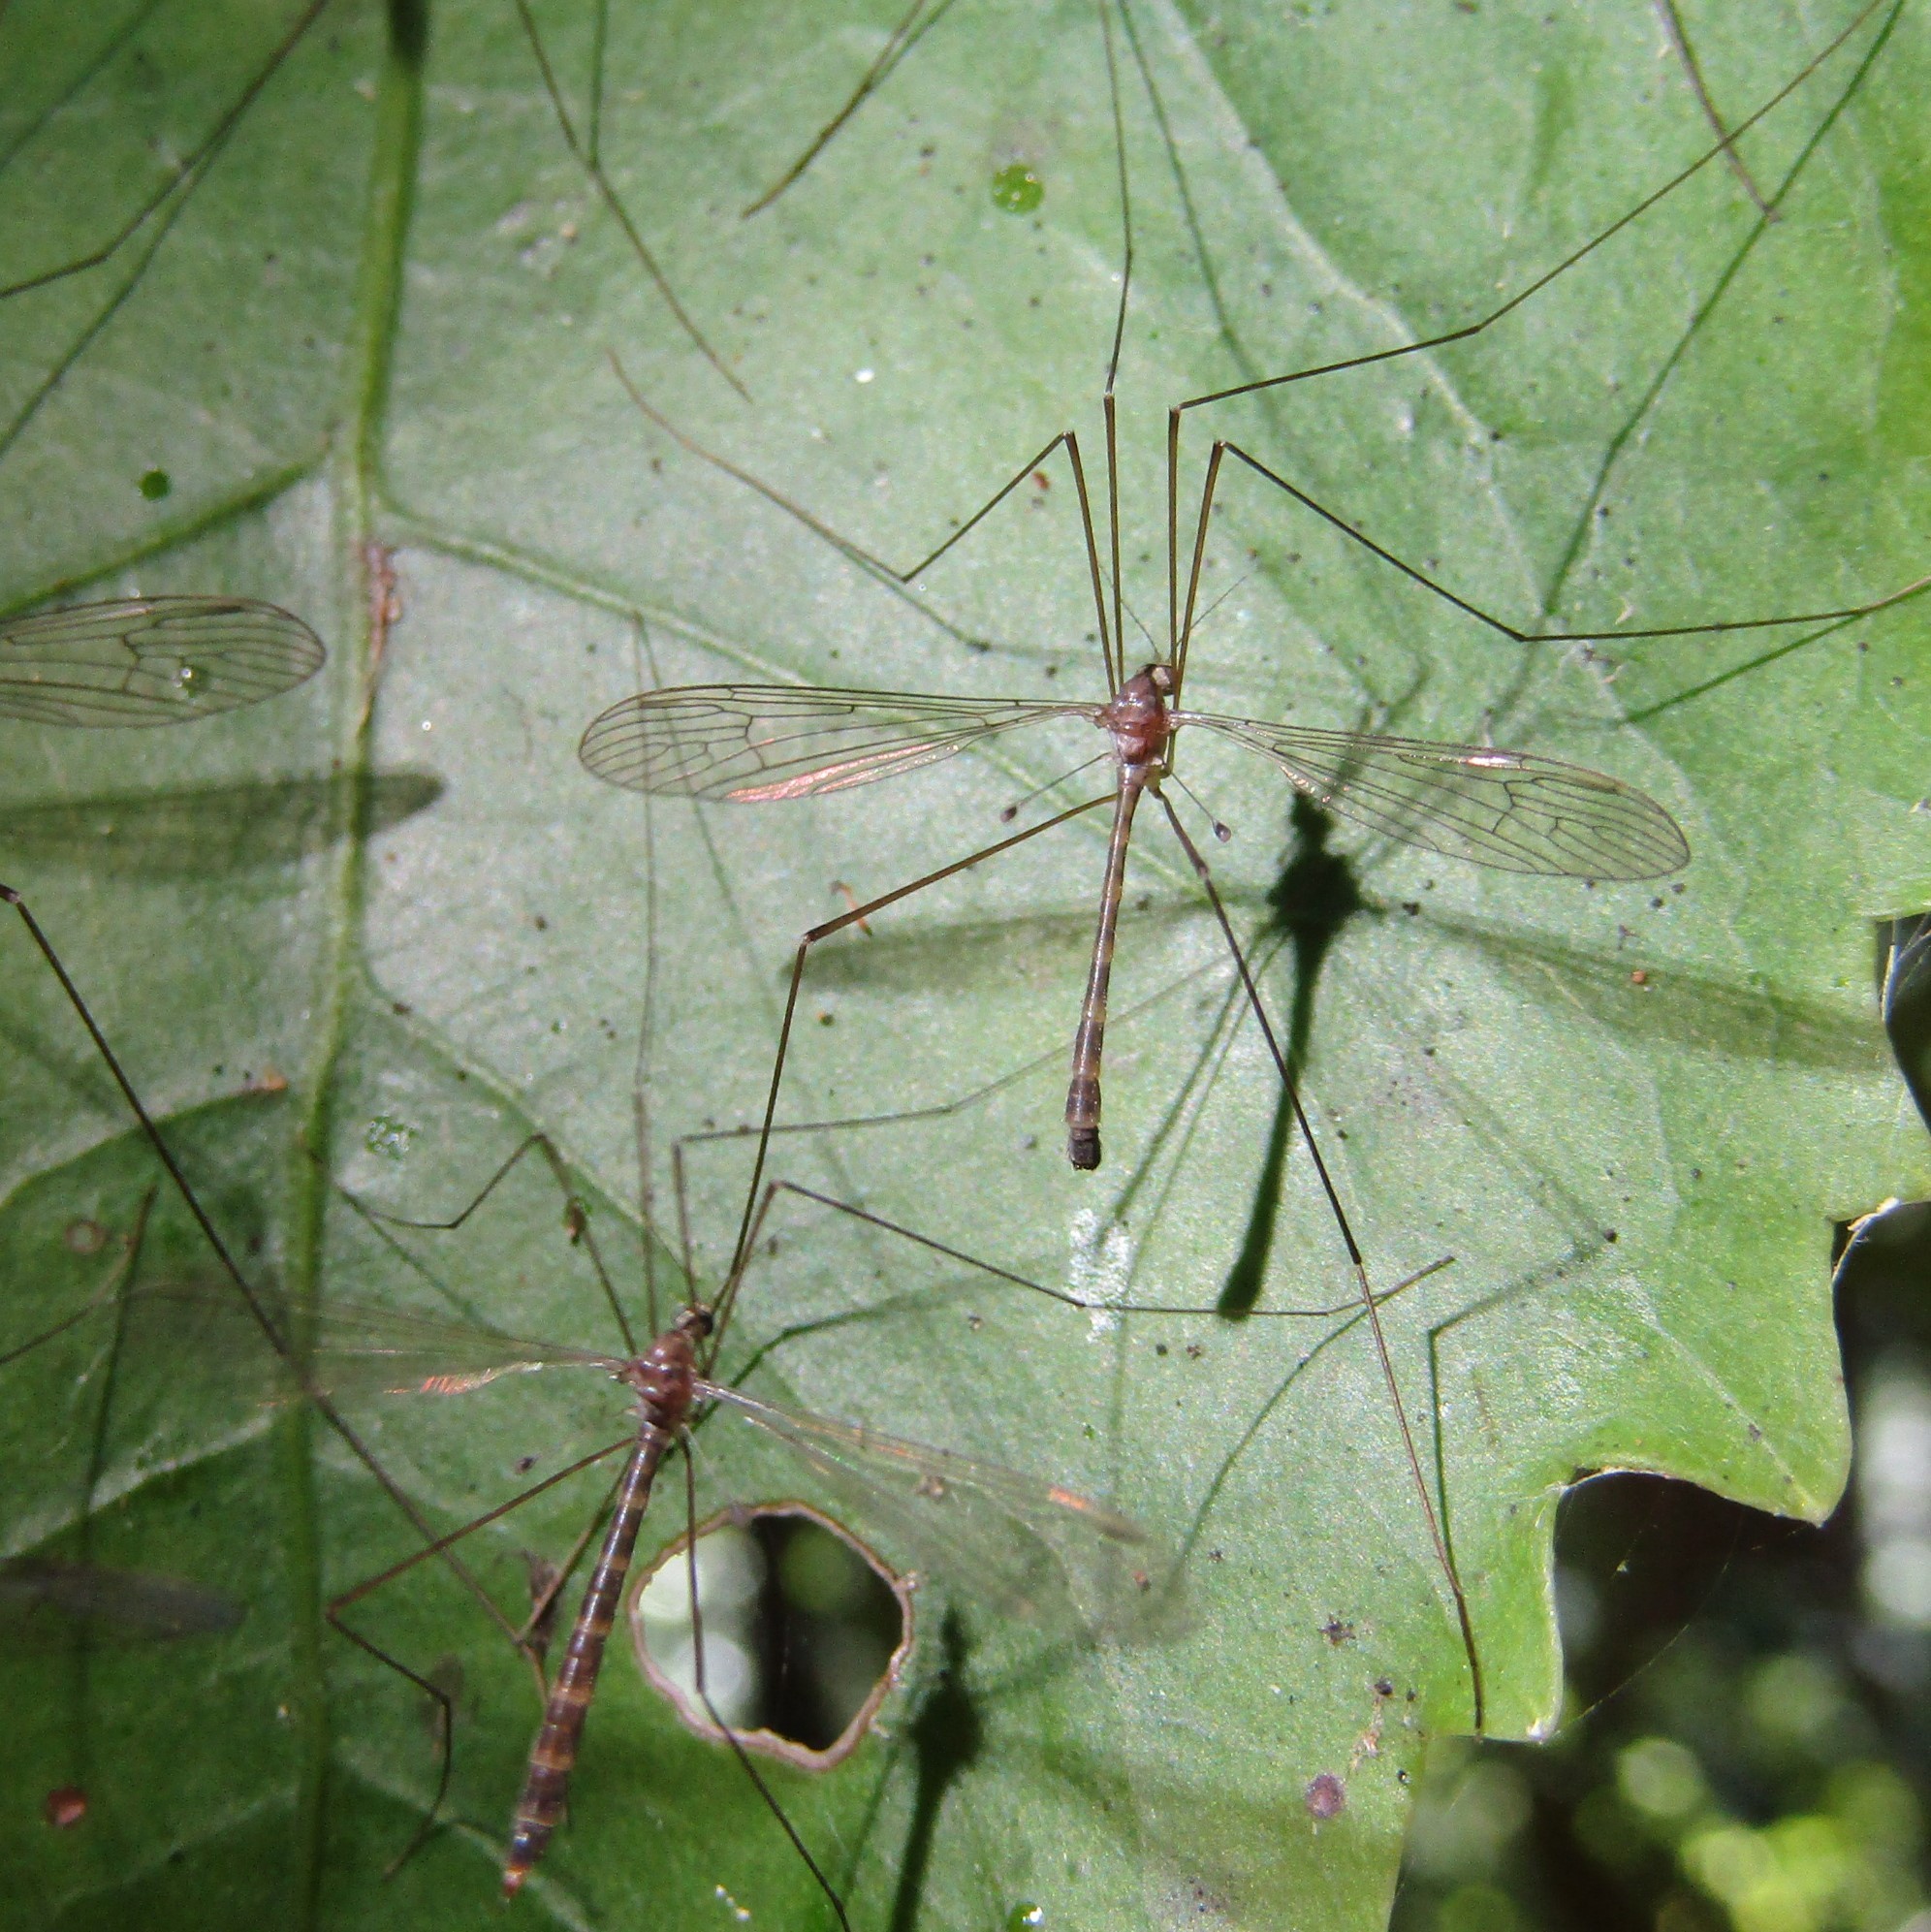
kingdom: Animalia
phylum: Arthropoda
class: Insecta
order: Diptera
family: Limoniidae
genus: Limnophilella
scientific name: Limnophilella delicatula
